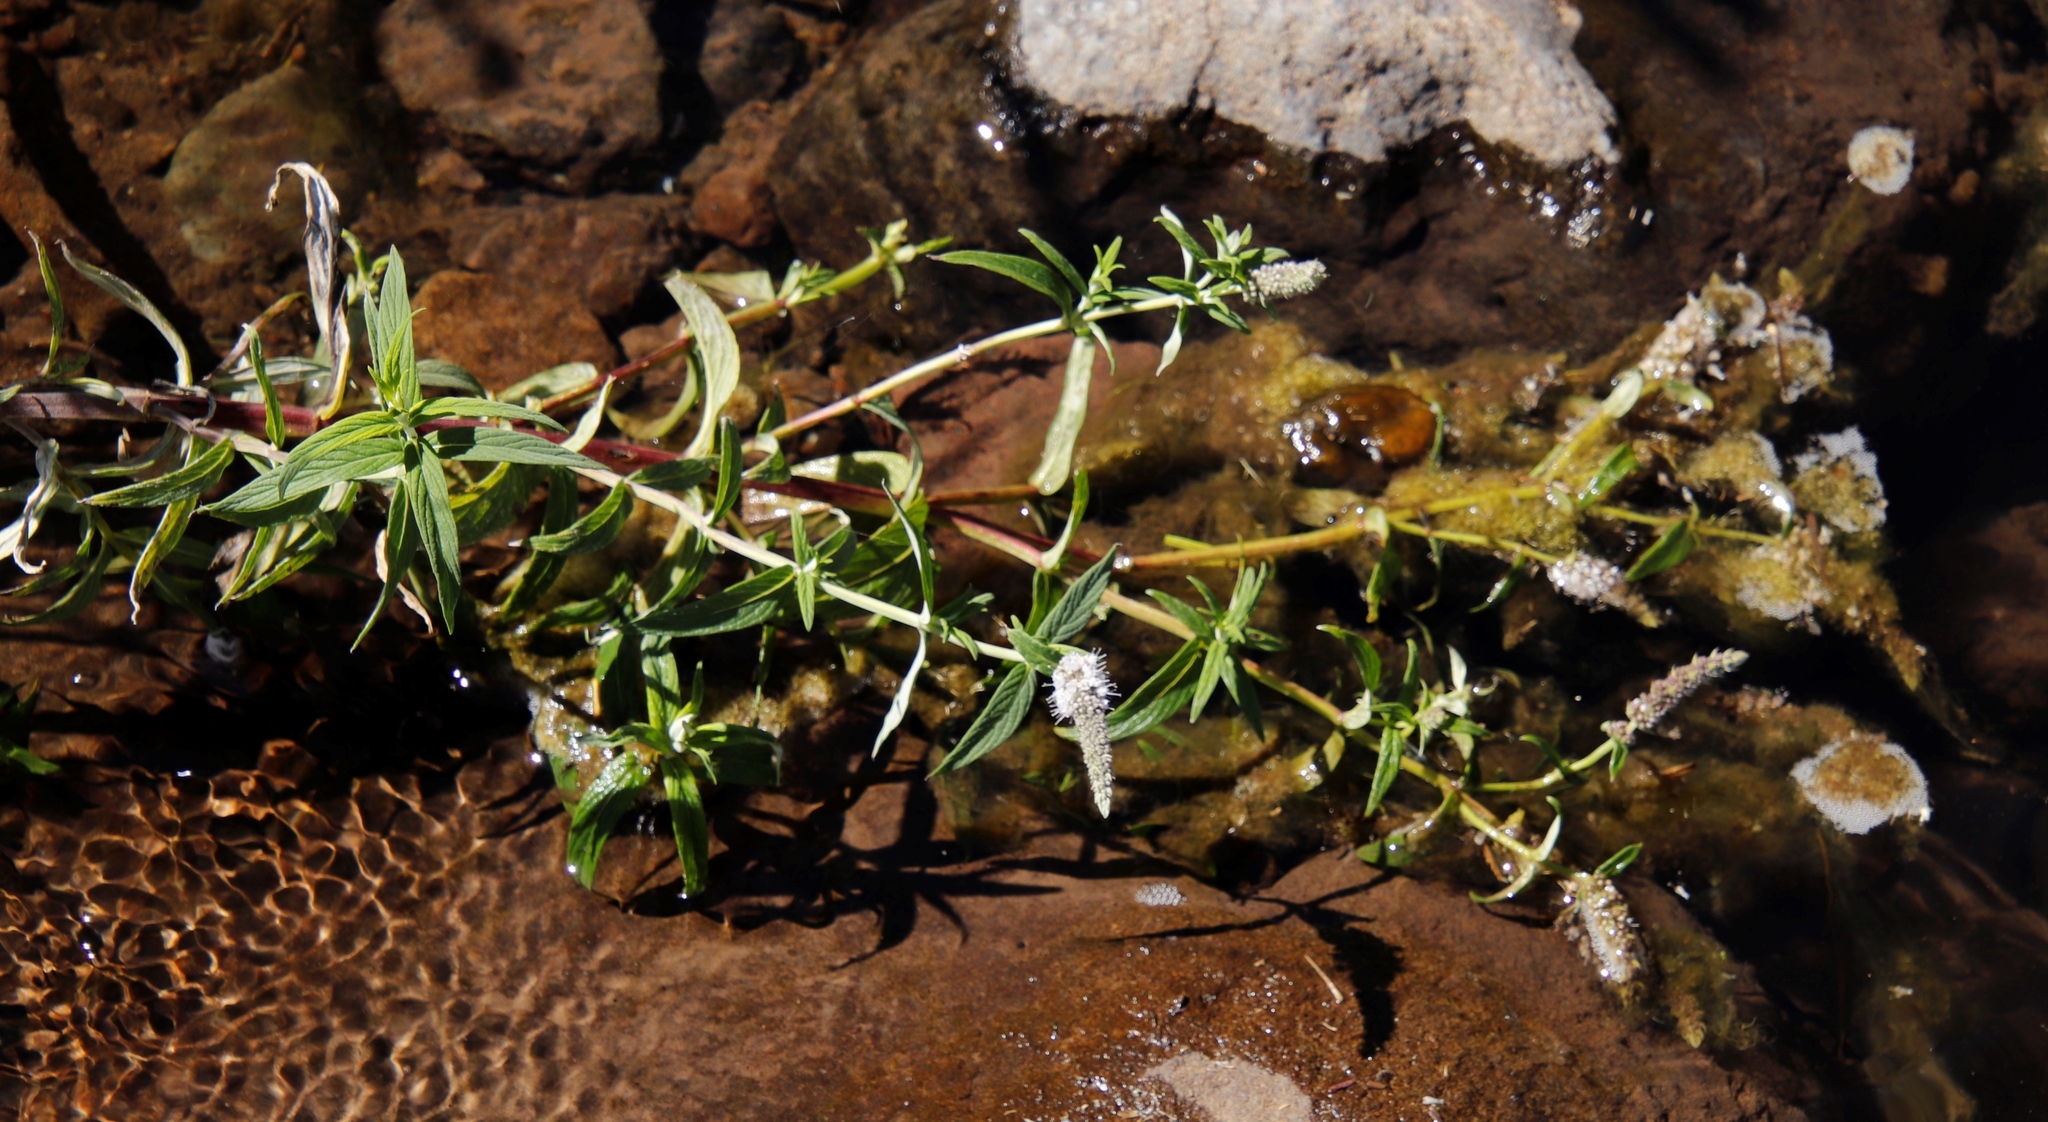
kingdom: Plantae
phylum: Tracheophyta
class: Magnoliopsida
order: Lamiales
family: Lamiaceae
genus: Mentha
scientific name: Mentha longifolia
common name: Horse mint
